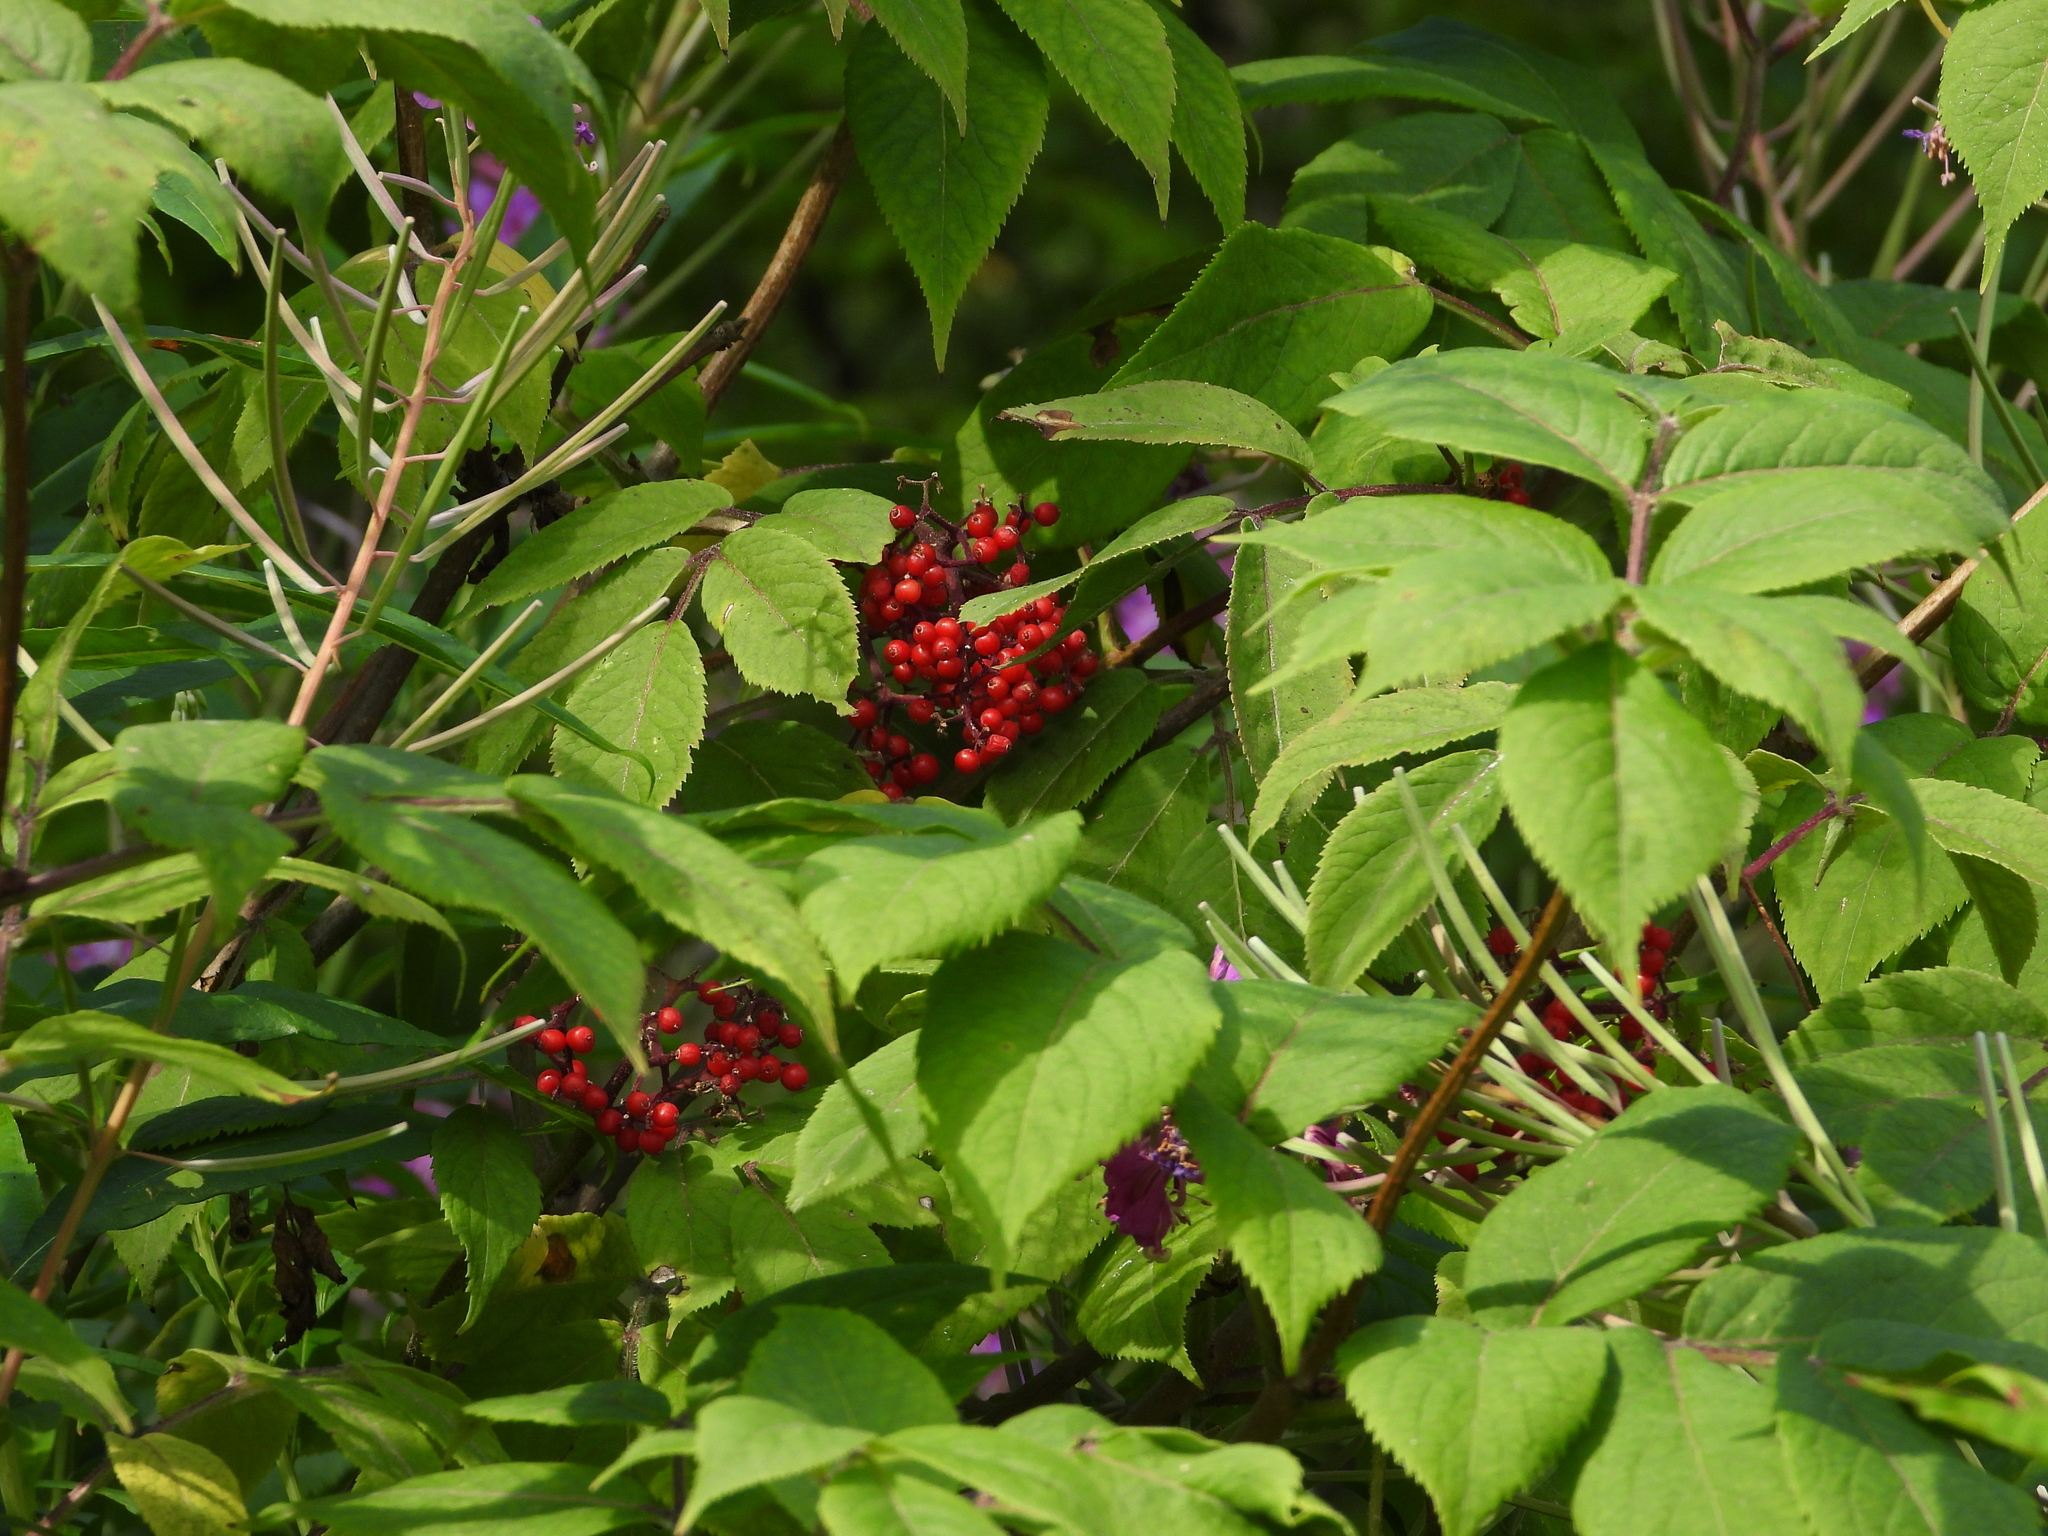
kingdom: Plantae
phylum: Tracheophyta
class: Magnoliopsida
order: Dipsacales
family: Viburnaceae
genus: Sambucus
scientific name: Sambucus racemosa
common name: Red-berried elder
